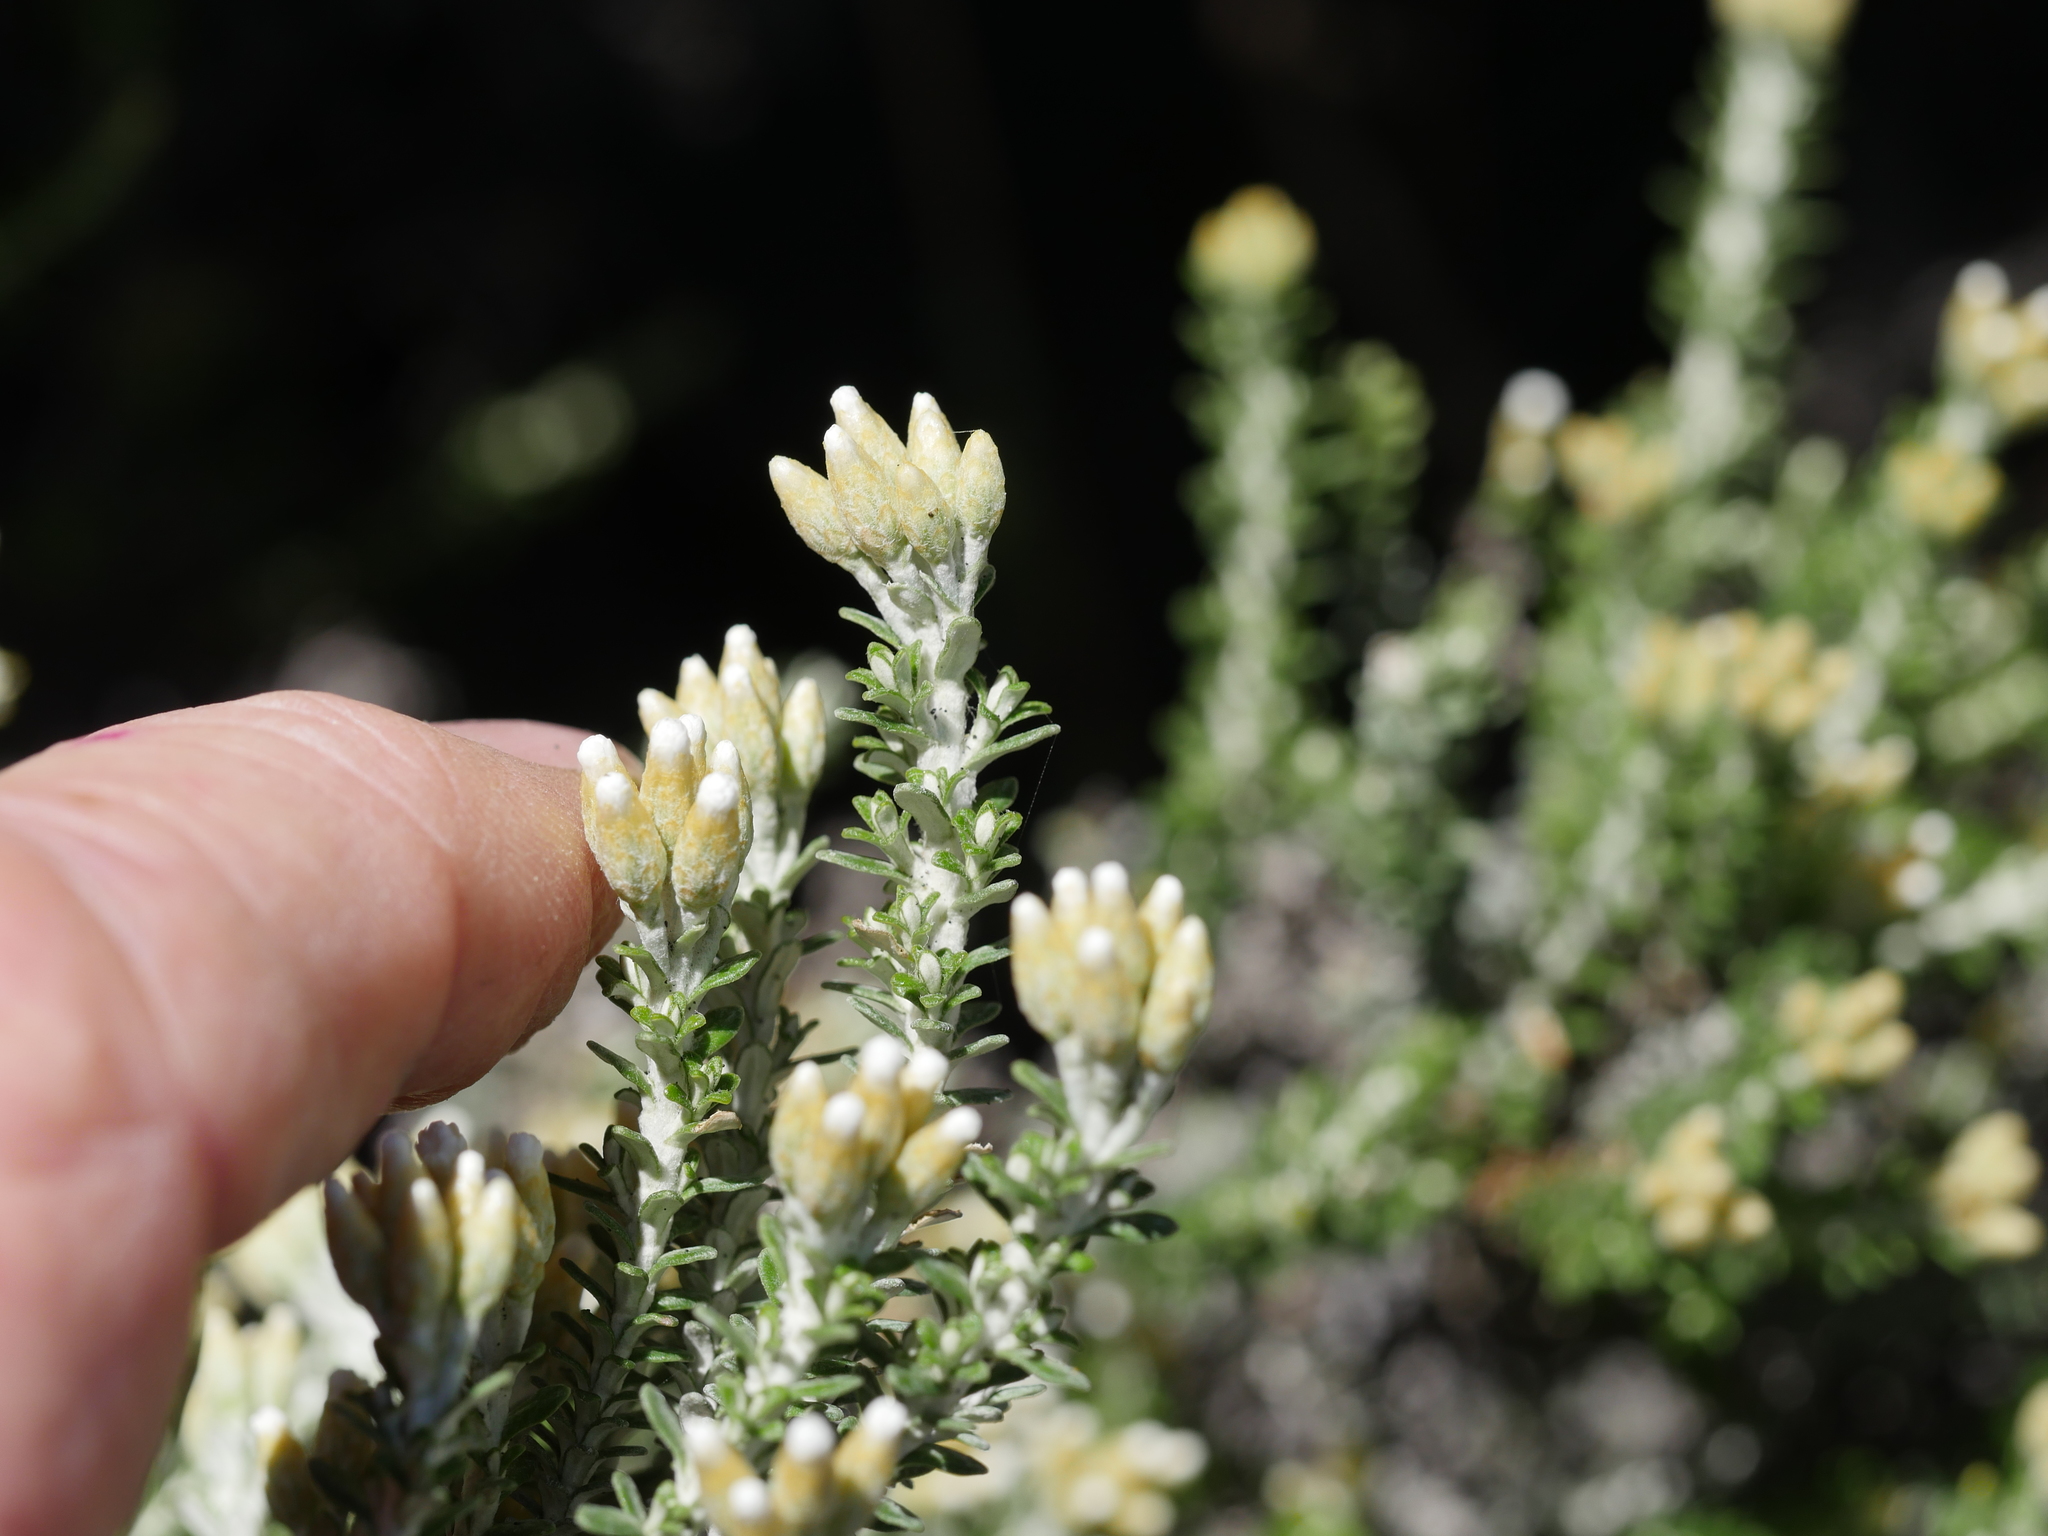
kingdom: Plantae
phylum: Tracheophyta
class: Magnoliopsida
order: Asterales
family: Asteraceae
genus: Ozothamnus
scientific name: Ozothamnus leptophyllus
